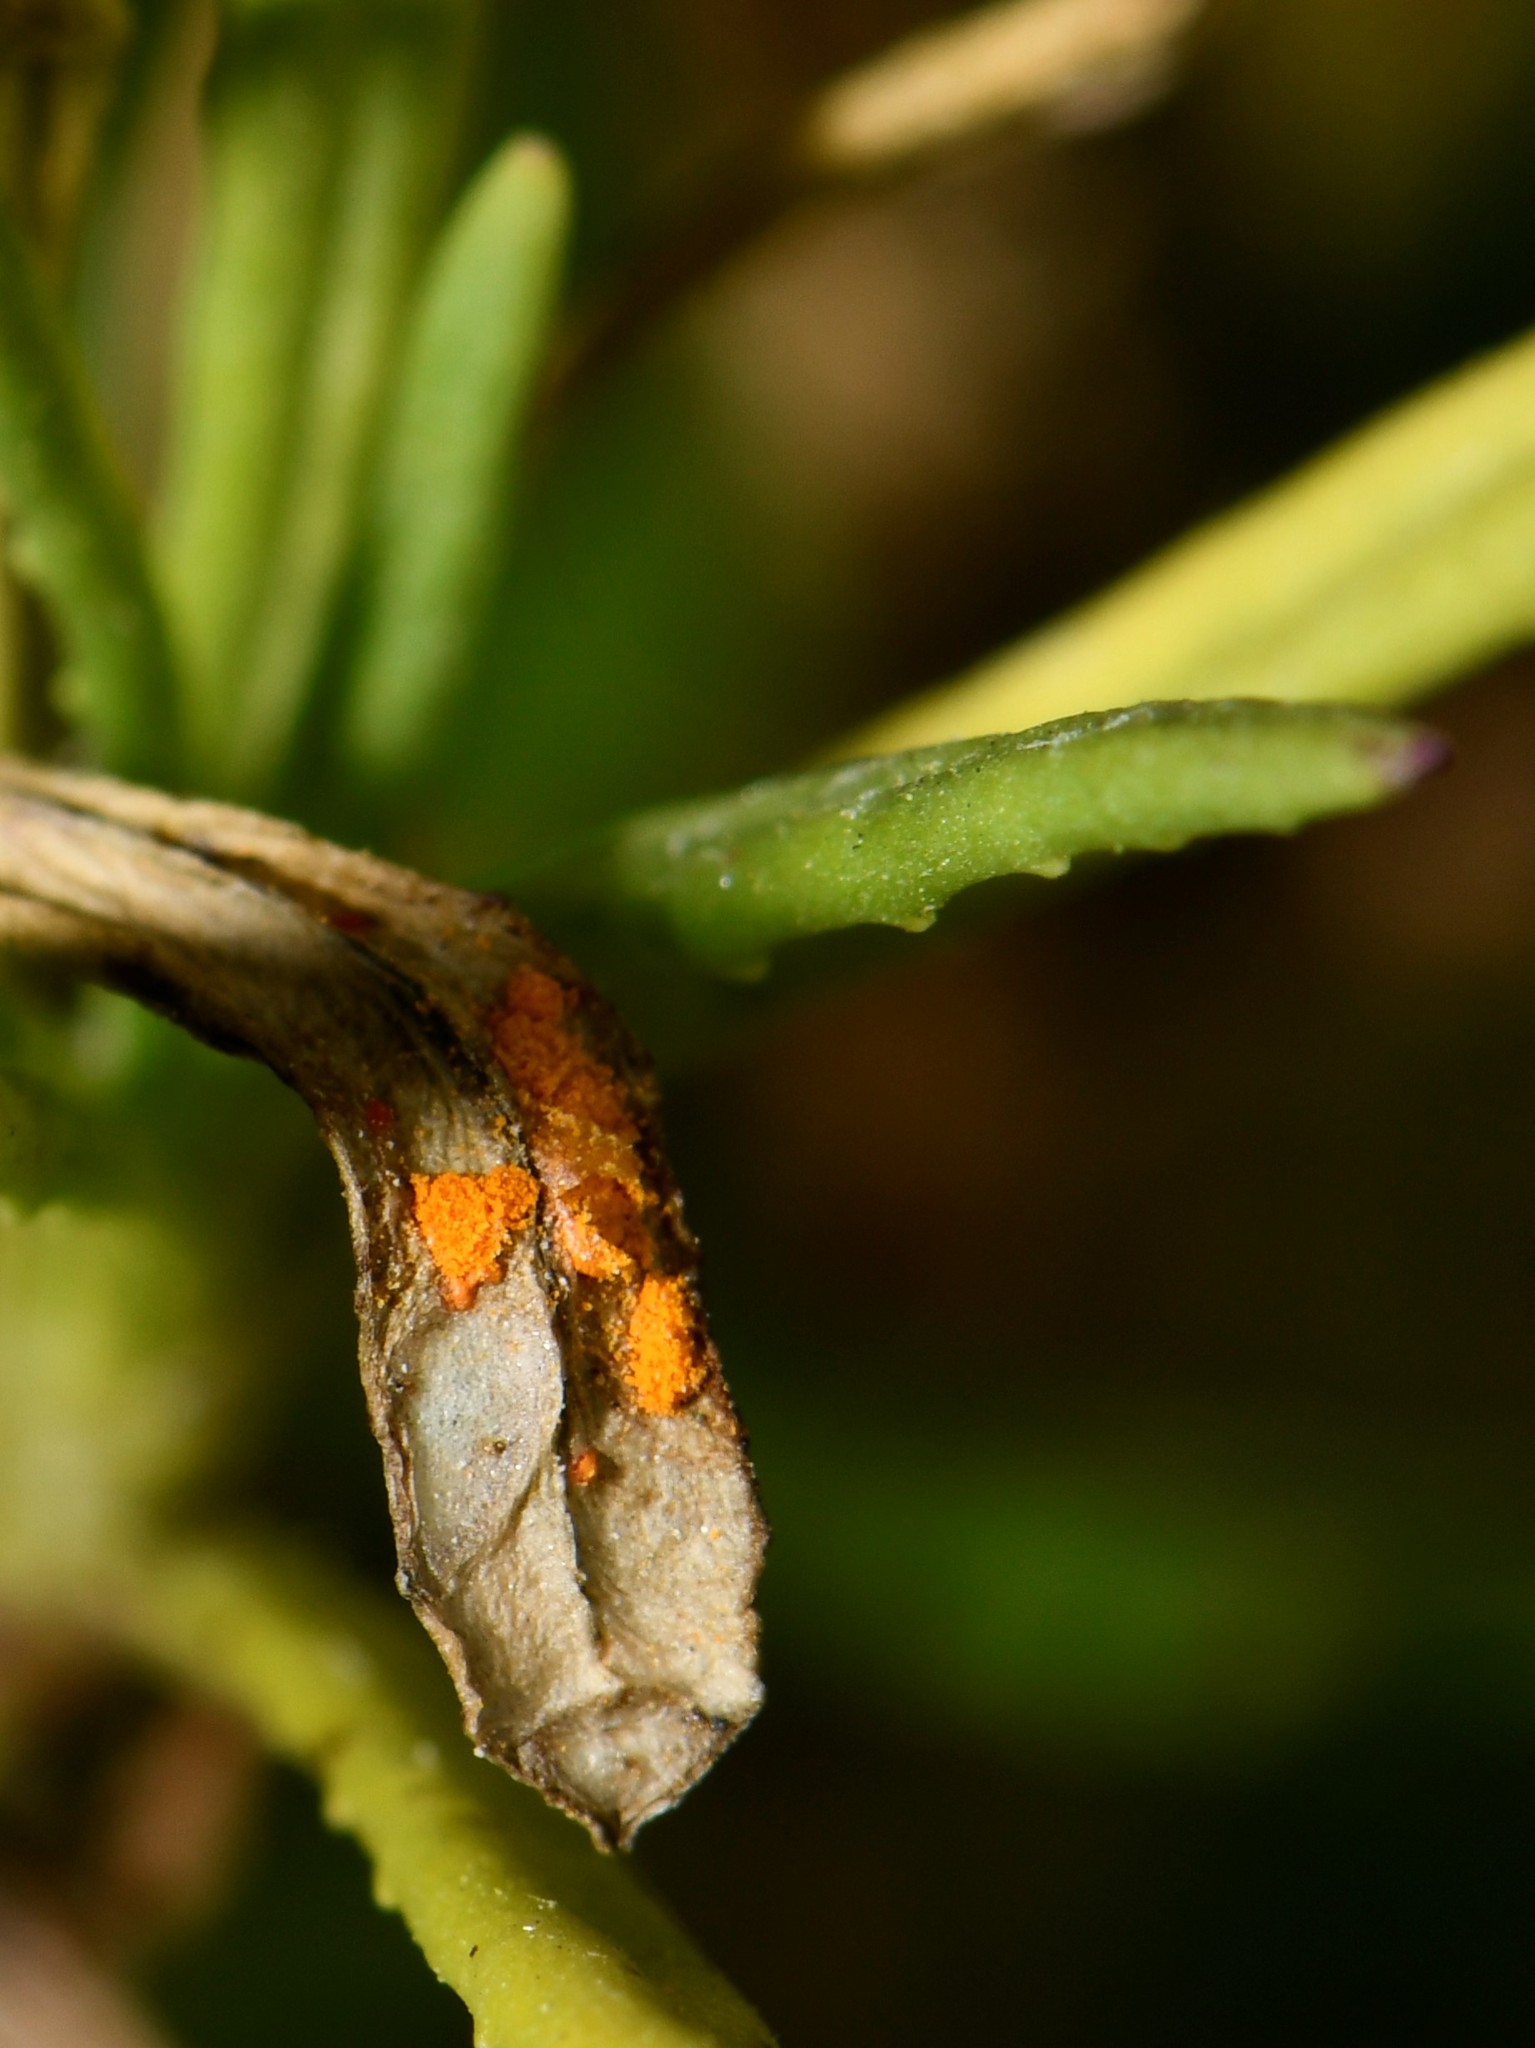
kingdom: Fungi
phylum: Basidiomycota
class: Pucciniomycetes
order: Pucciniales
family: Coleosporiaceae
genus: Coleosporium
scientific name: Coleosporium senecionis
